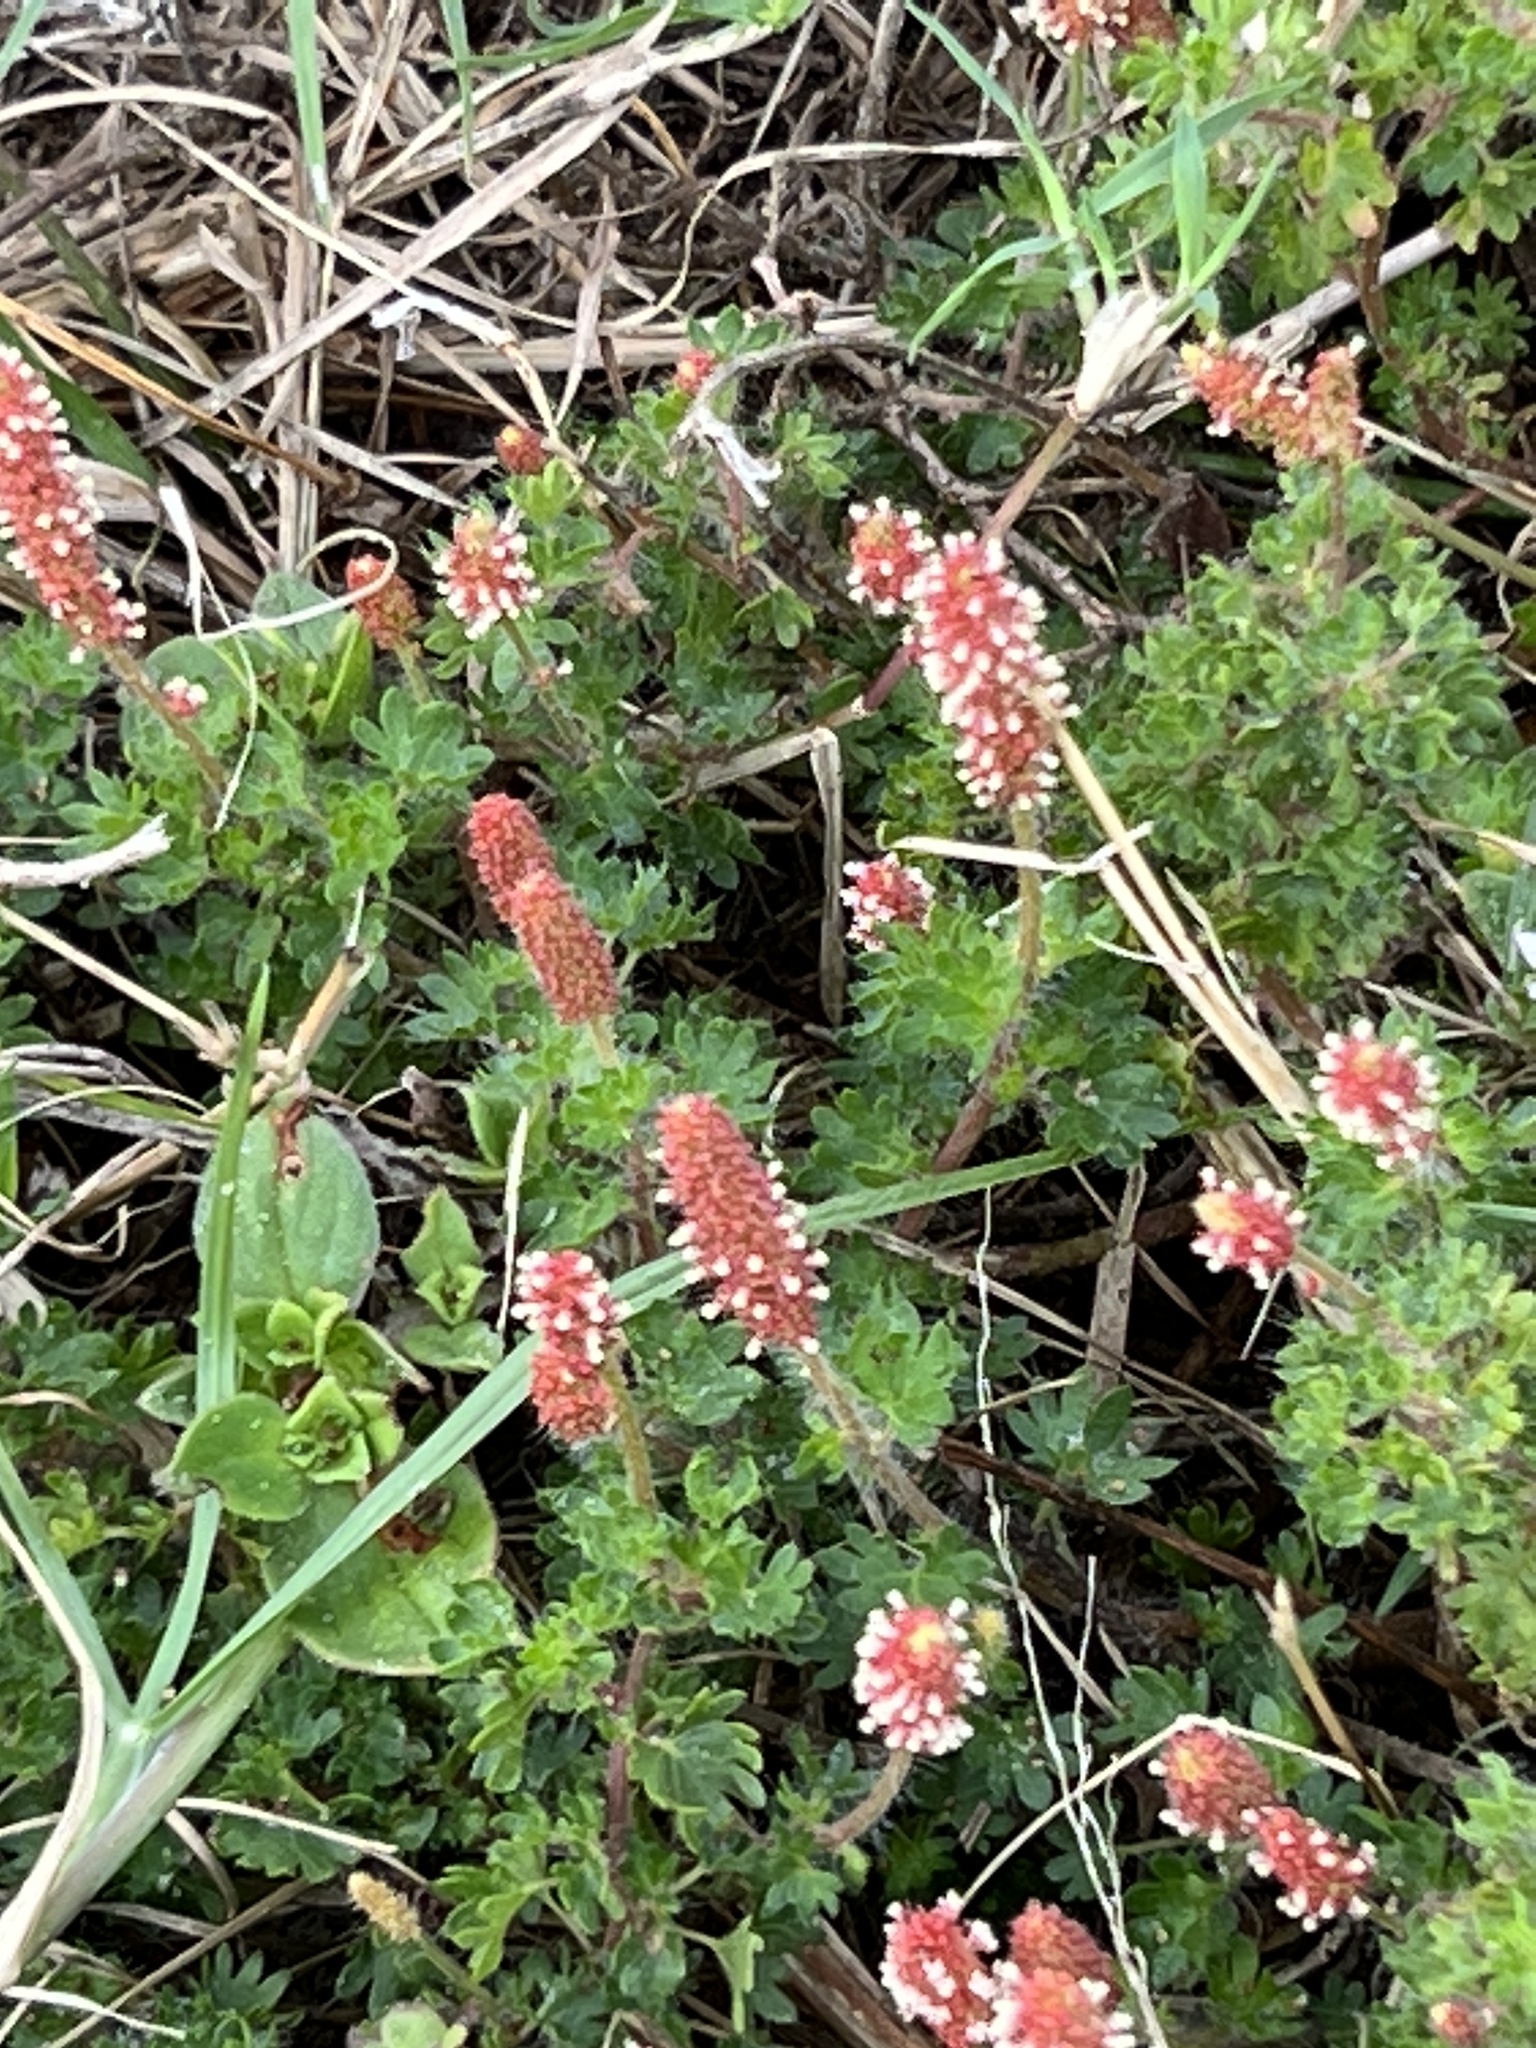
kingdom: Plantae
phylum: Tracheophyta
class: Magnoliopsida
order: Malpighiales
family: Euphorbiaceae
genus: Acalypha
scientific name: Acalypha radians
